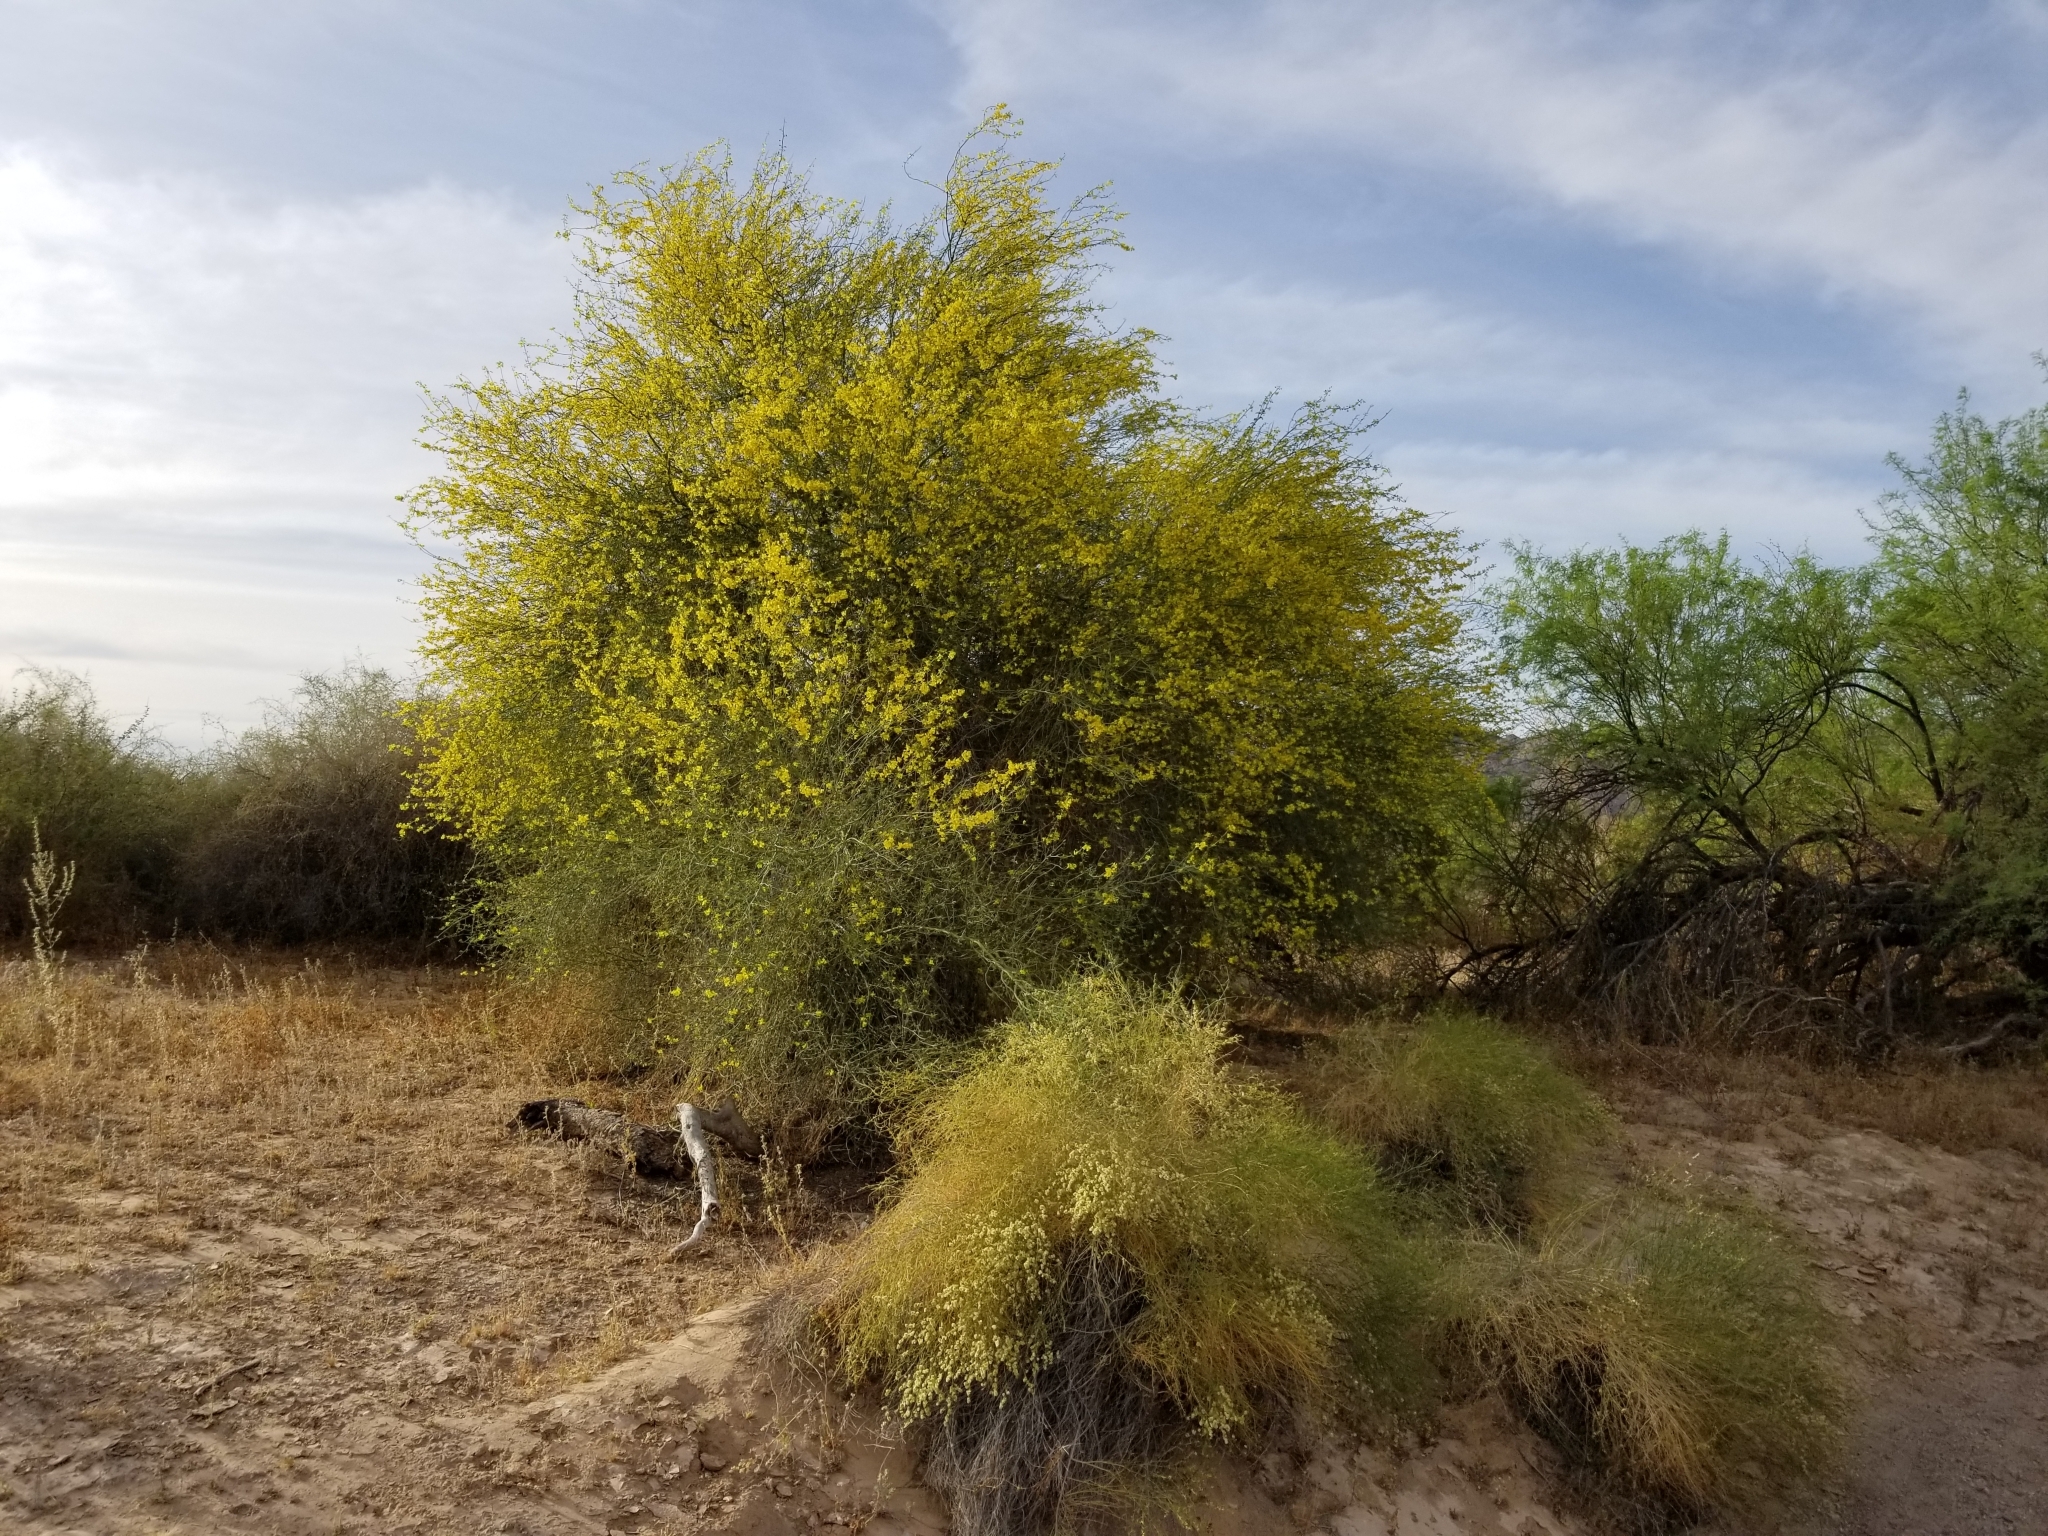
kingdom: Plantae
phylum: Tracheophyta
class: Magnoliopsida
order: Fabales
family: Fabaceae
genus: Parkinsonia
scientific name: Parkinsonia florida
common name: Blue paloverde
